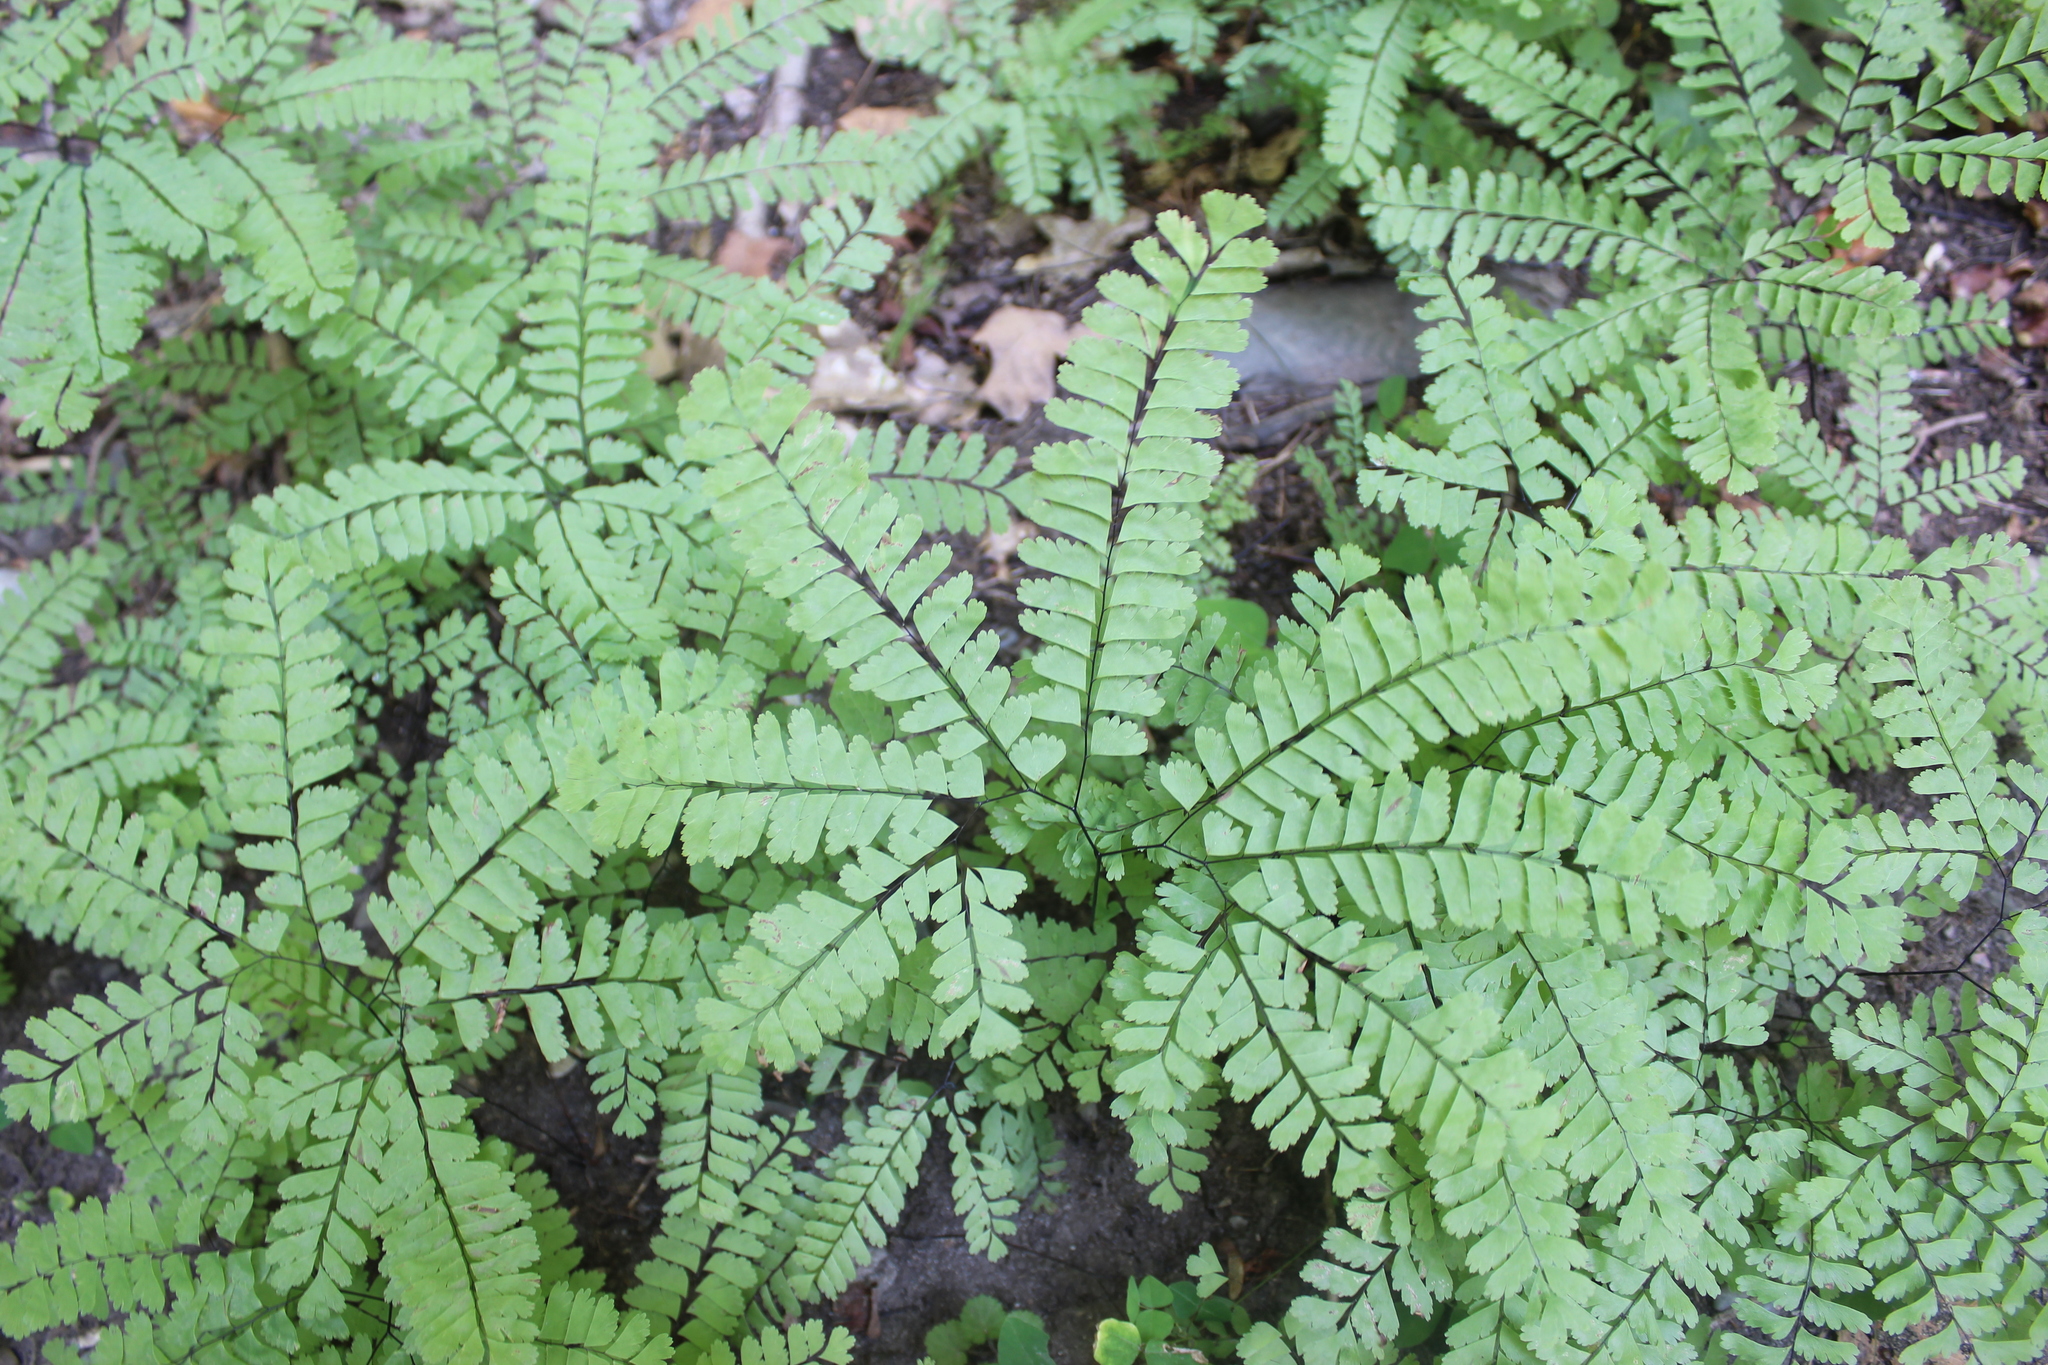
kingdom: Plantae
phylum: Tracheophyta
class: Polypodiopsida
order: Polypodiales
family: Pteridaceae
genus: Adiantum
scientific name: Adiantum pedatum
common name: Five-finger fern
